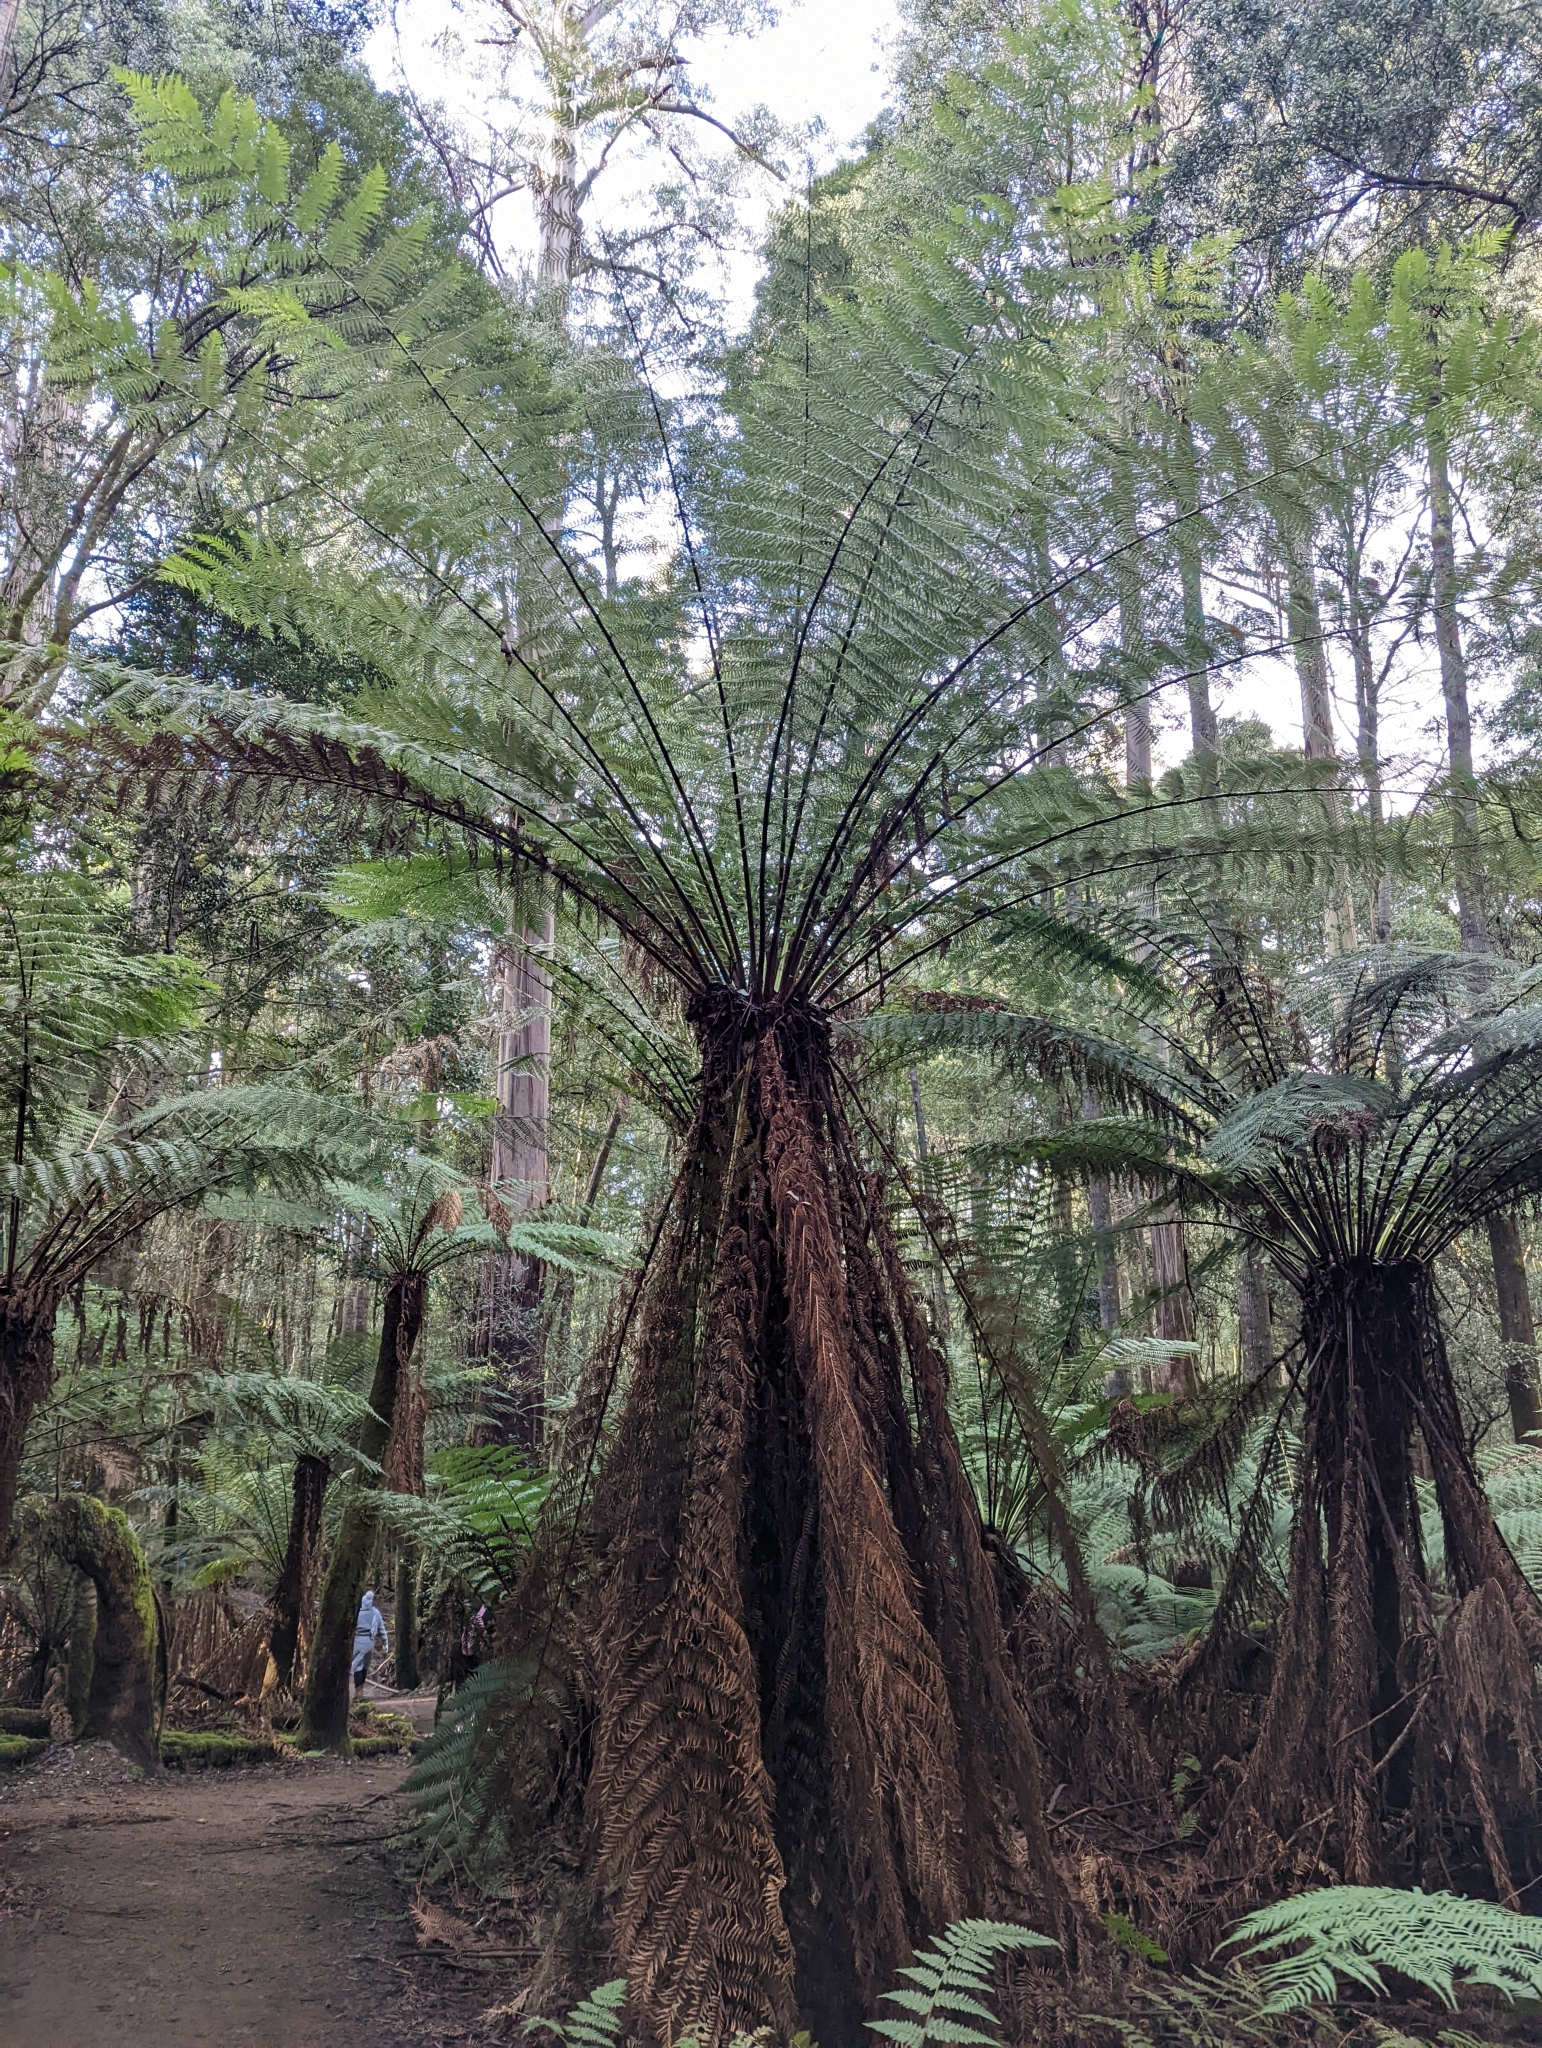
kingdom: Plantae
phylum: Tracheophyta
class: Polypodiopsida
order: Cyatheales
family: Dicksoniaceae
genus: Dicksonia
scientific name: Dicksonia antarctica
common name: Australian treefern
